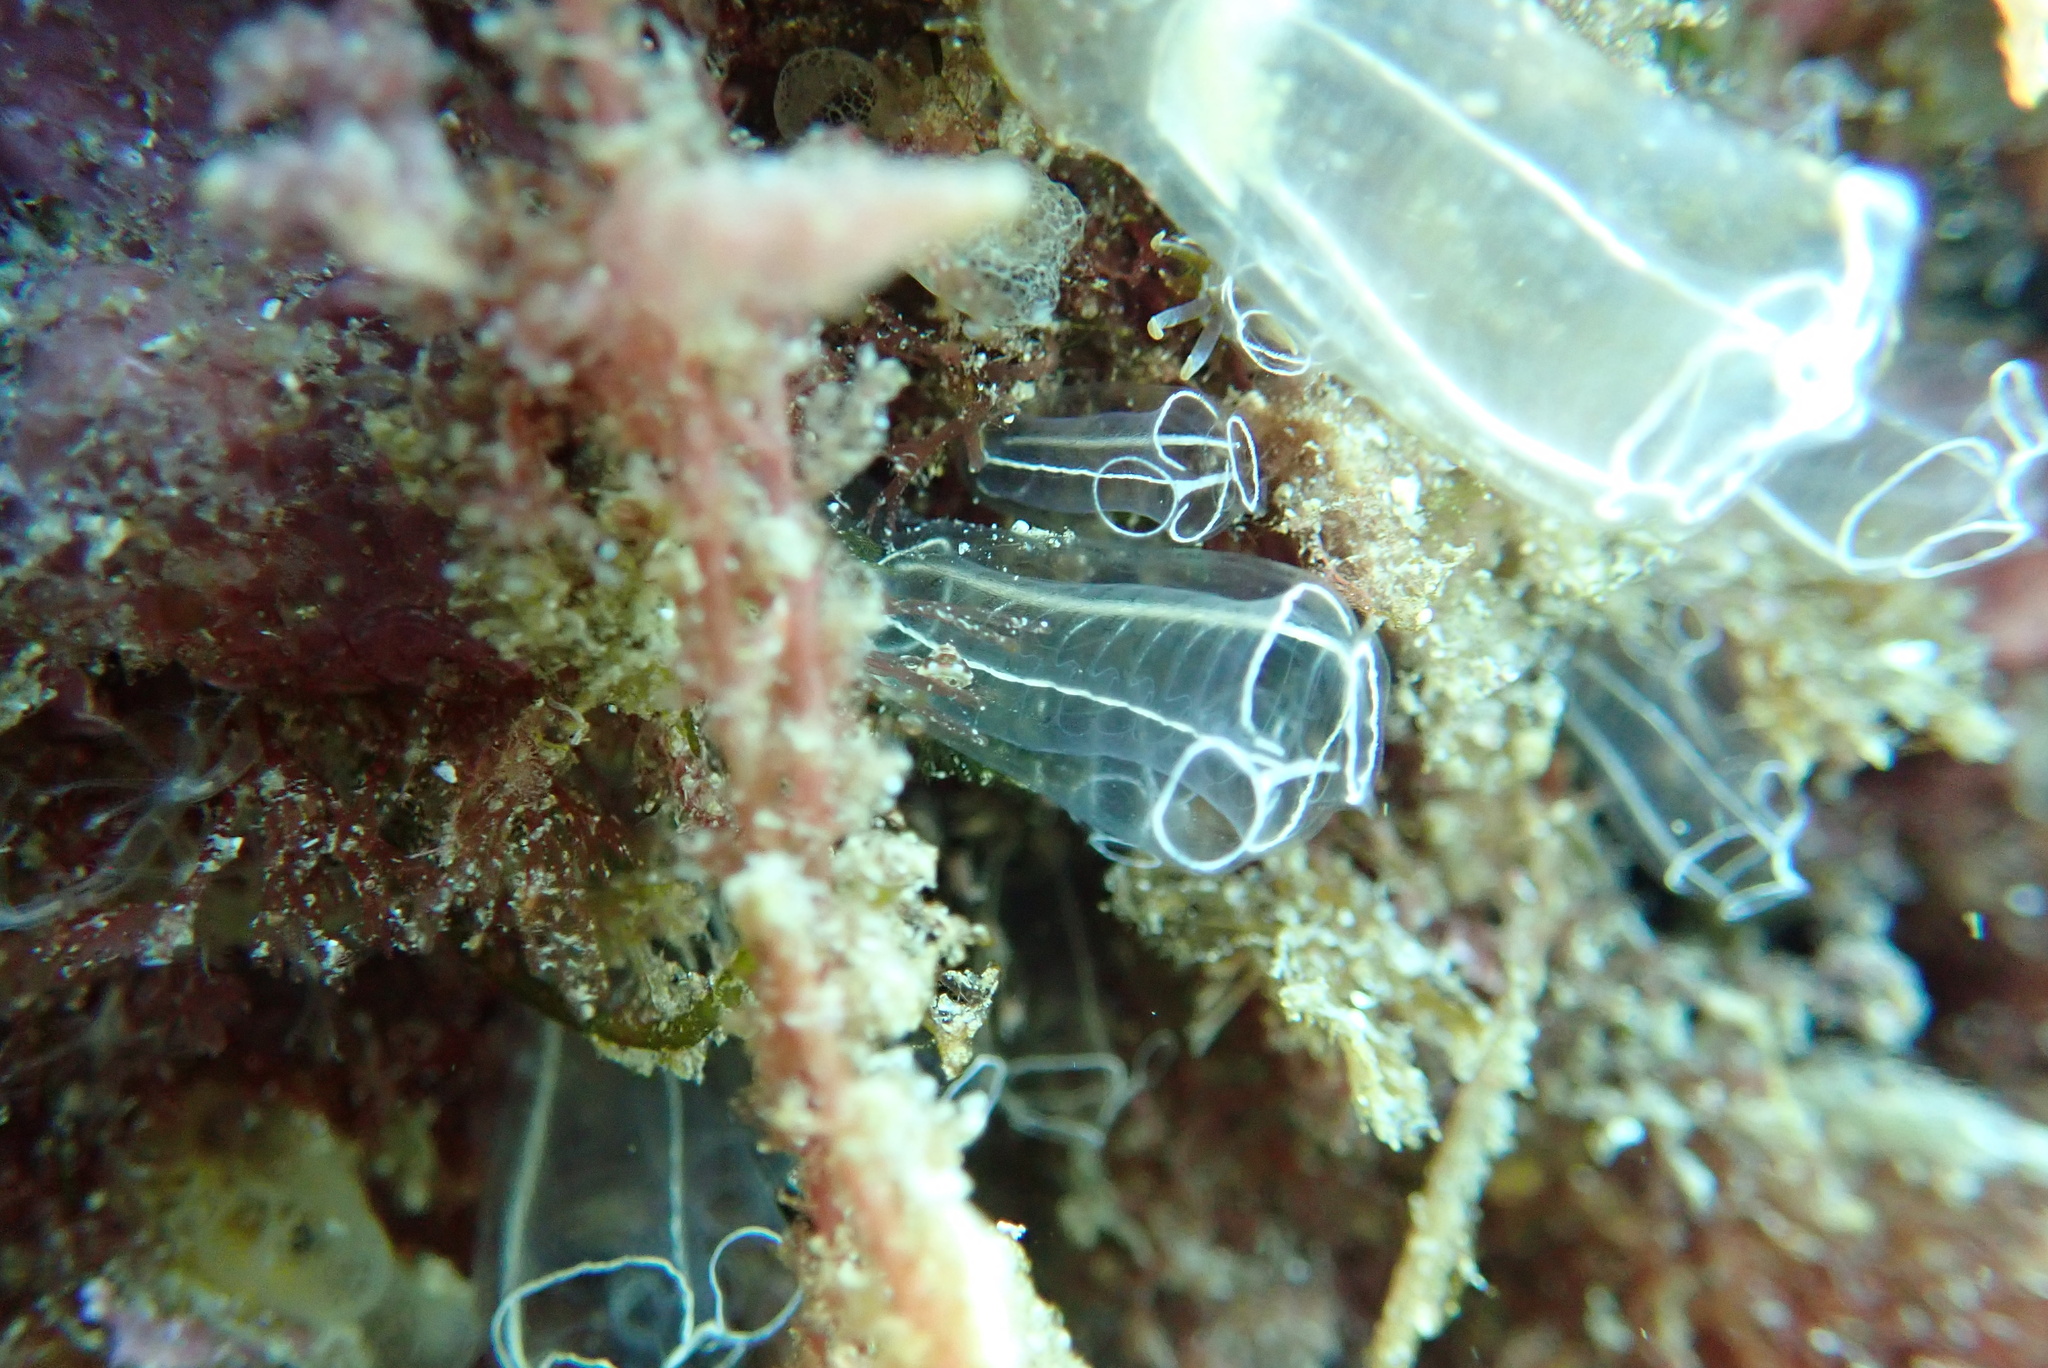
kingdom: Animalia
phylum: Chordata
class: Ascidiacea
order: Aplousobranchia
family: Clavelinidae
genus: Clavelina
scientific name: Clavelina lepadiformis
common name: Light bulb tunicate
